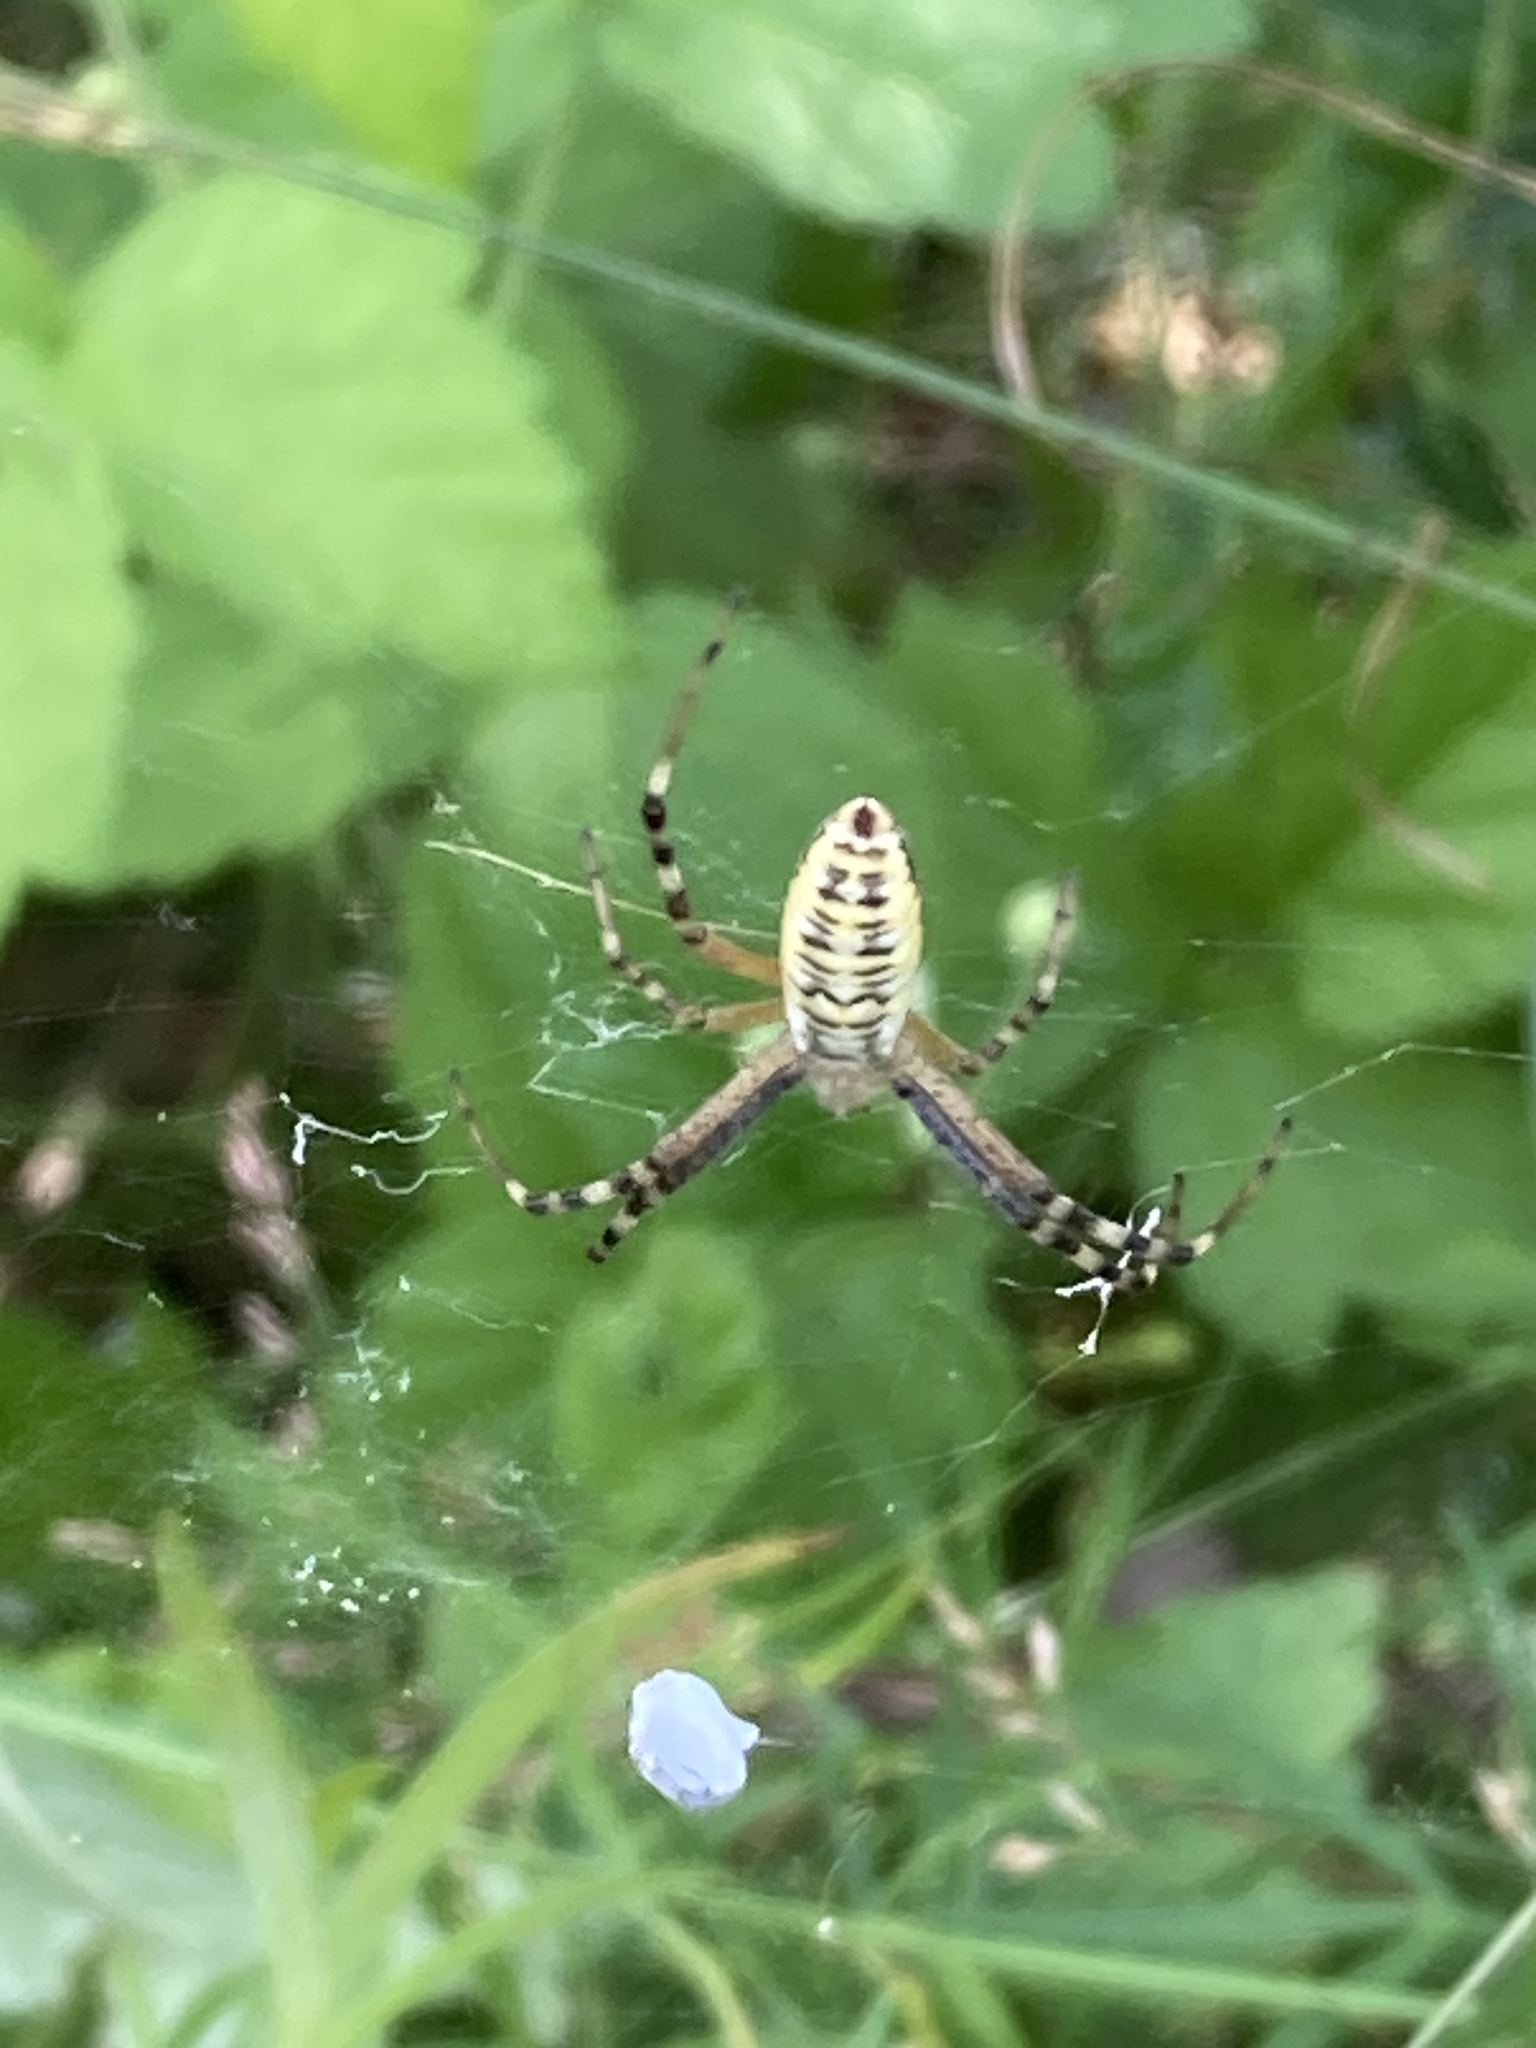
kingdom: Animalia
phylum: Arthropoda
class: Arachnida
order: Araneae
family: Araneidae
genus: Argiope
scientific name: Argiope bruennichi
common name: Wasp spider
